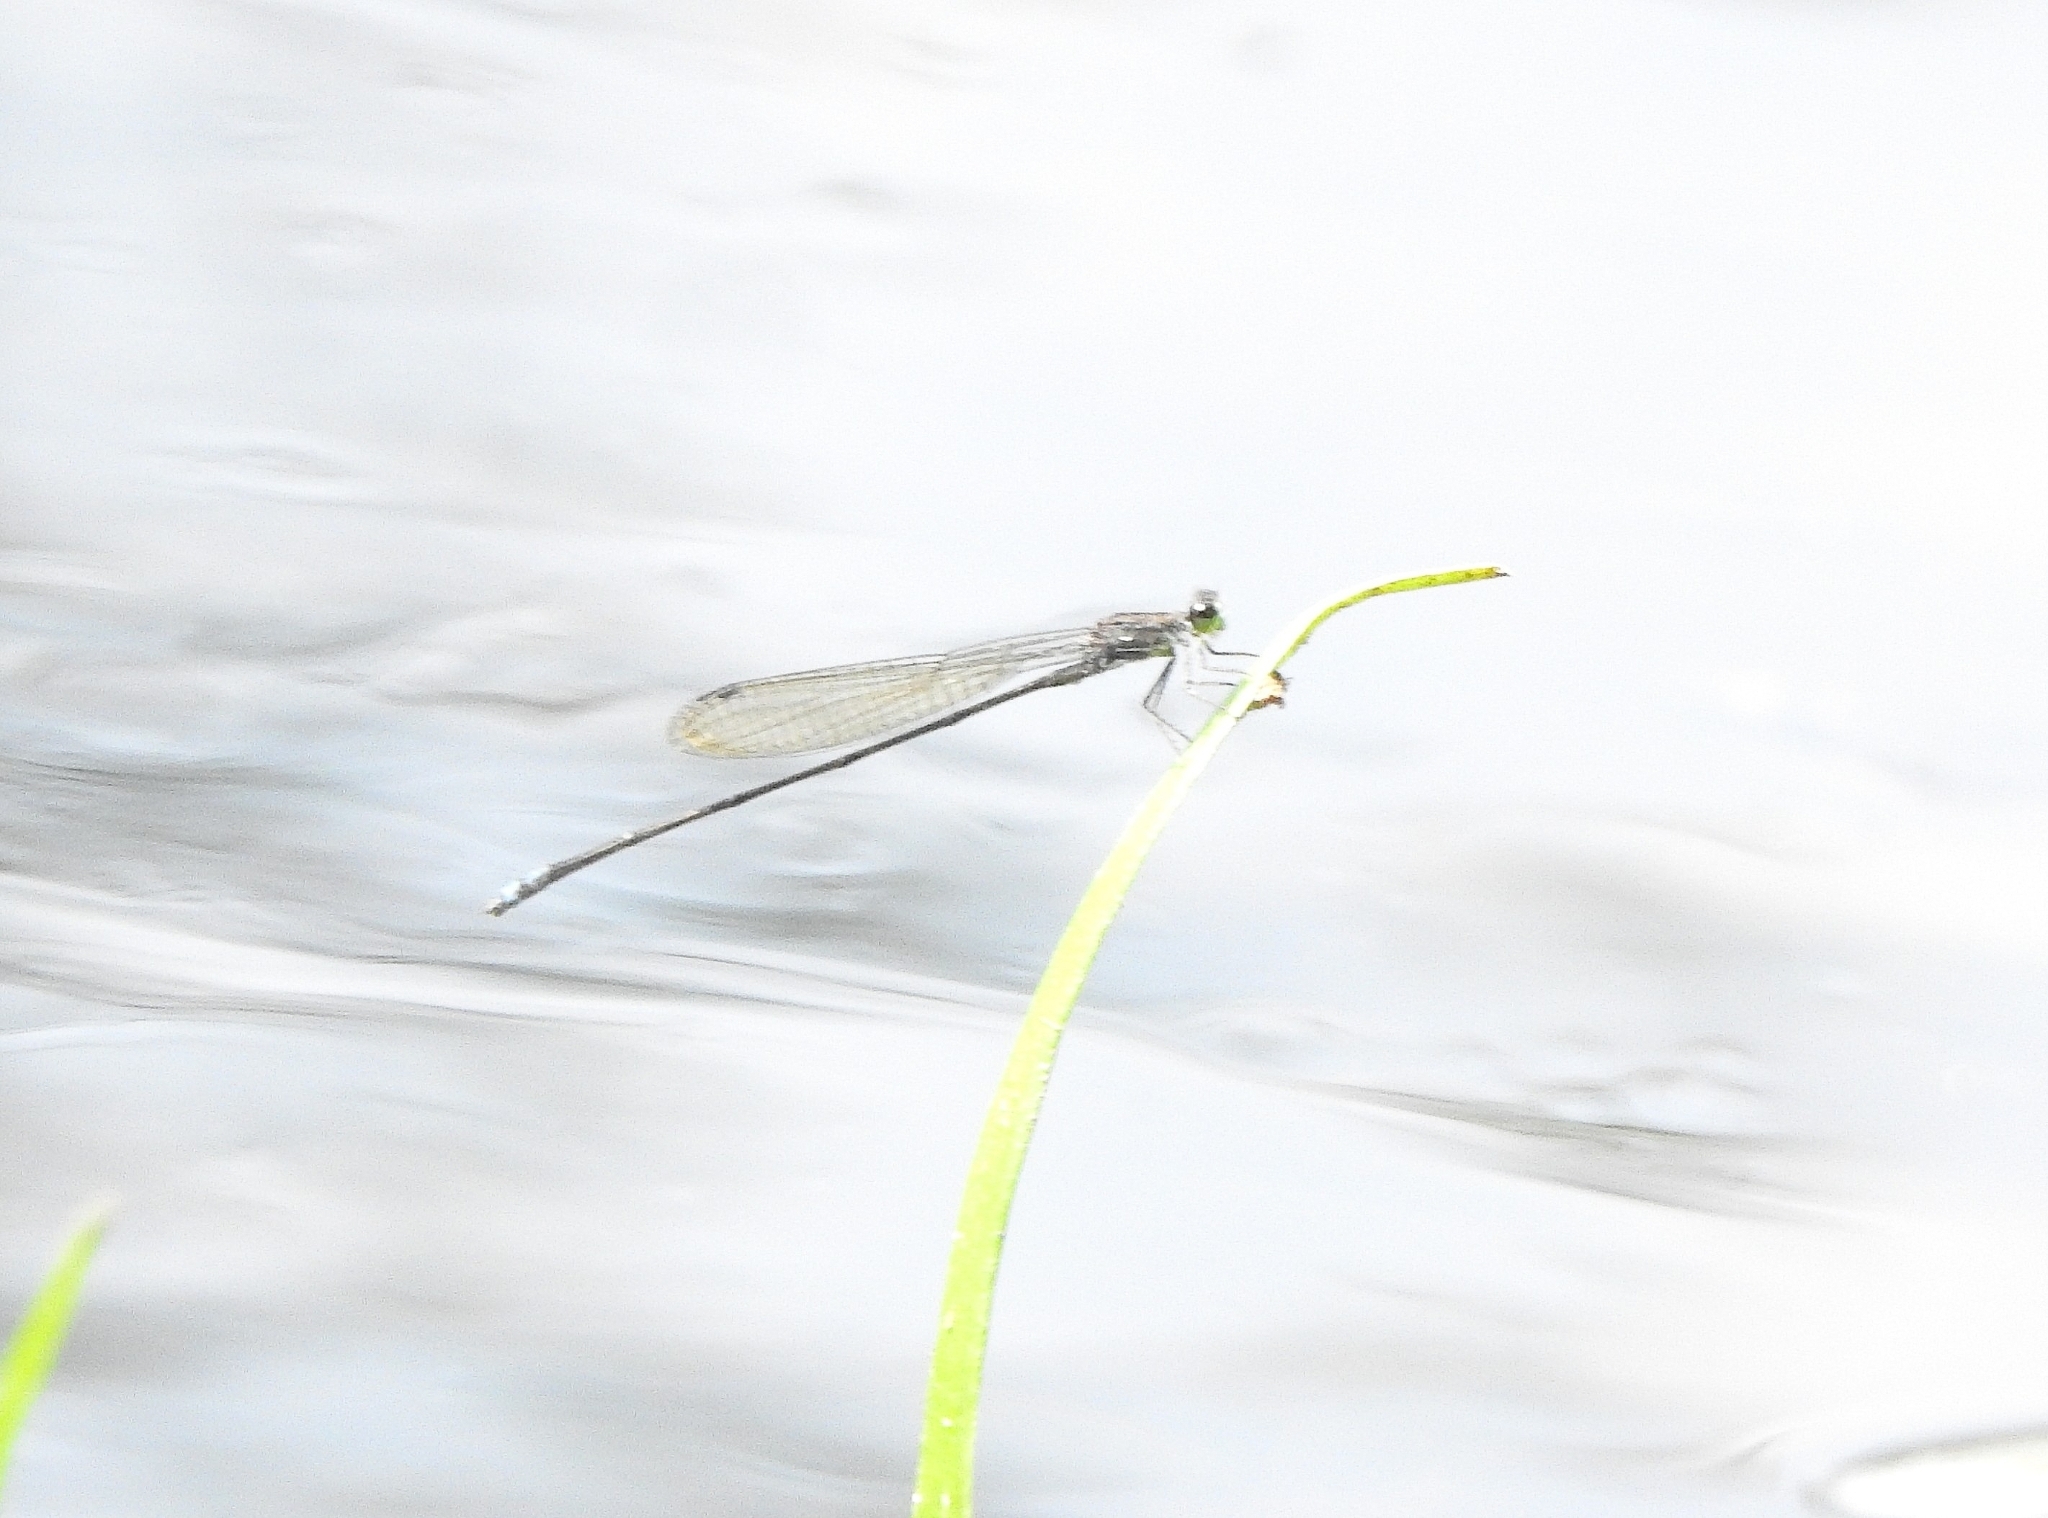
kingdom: Animalia
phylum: Arthropoda
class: Insecta
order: Odonata
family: Coenagrionidae
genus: Pseudagrion
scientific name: Pseudagrion indicum
